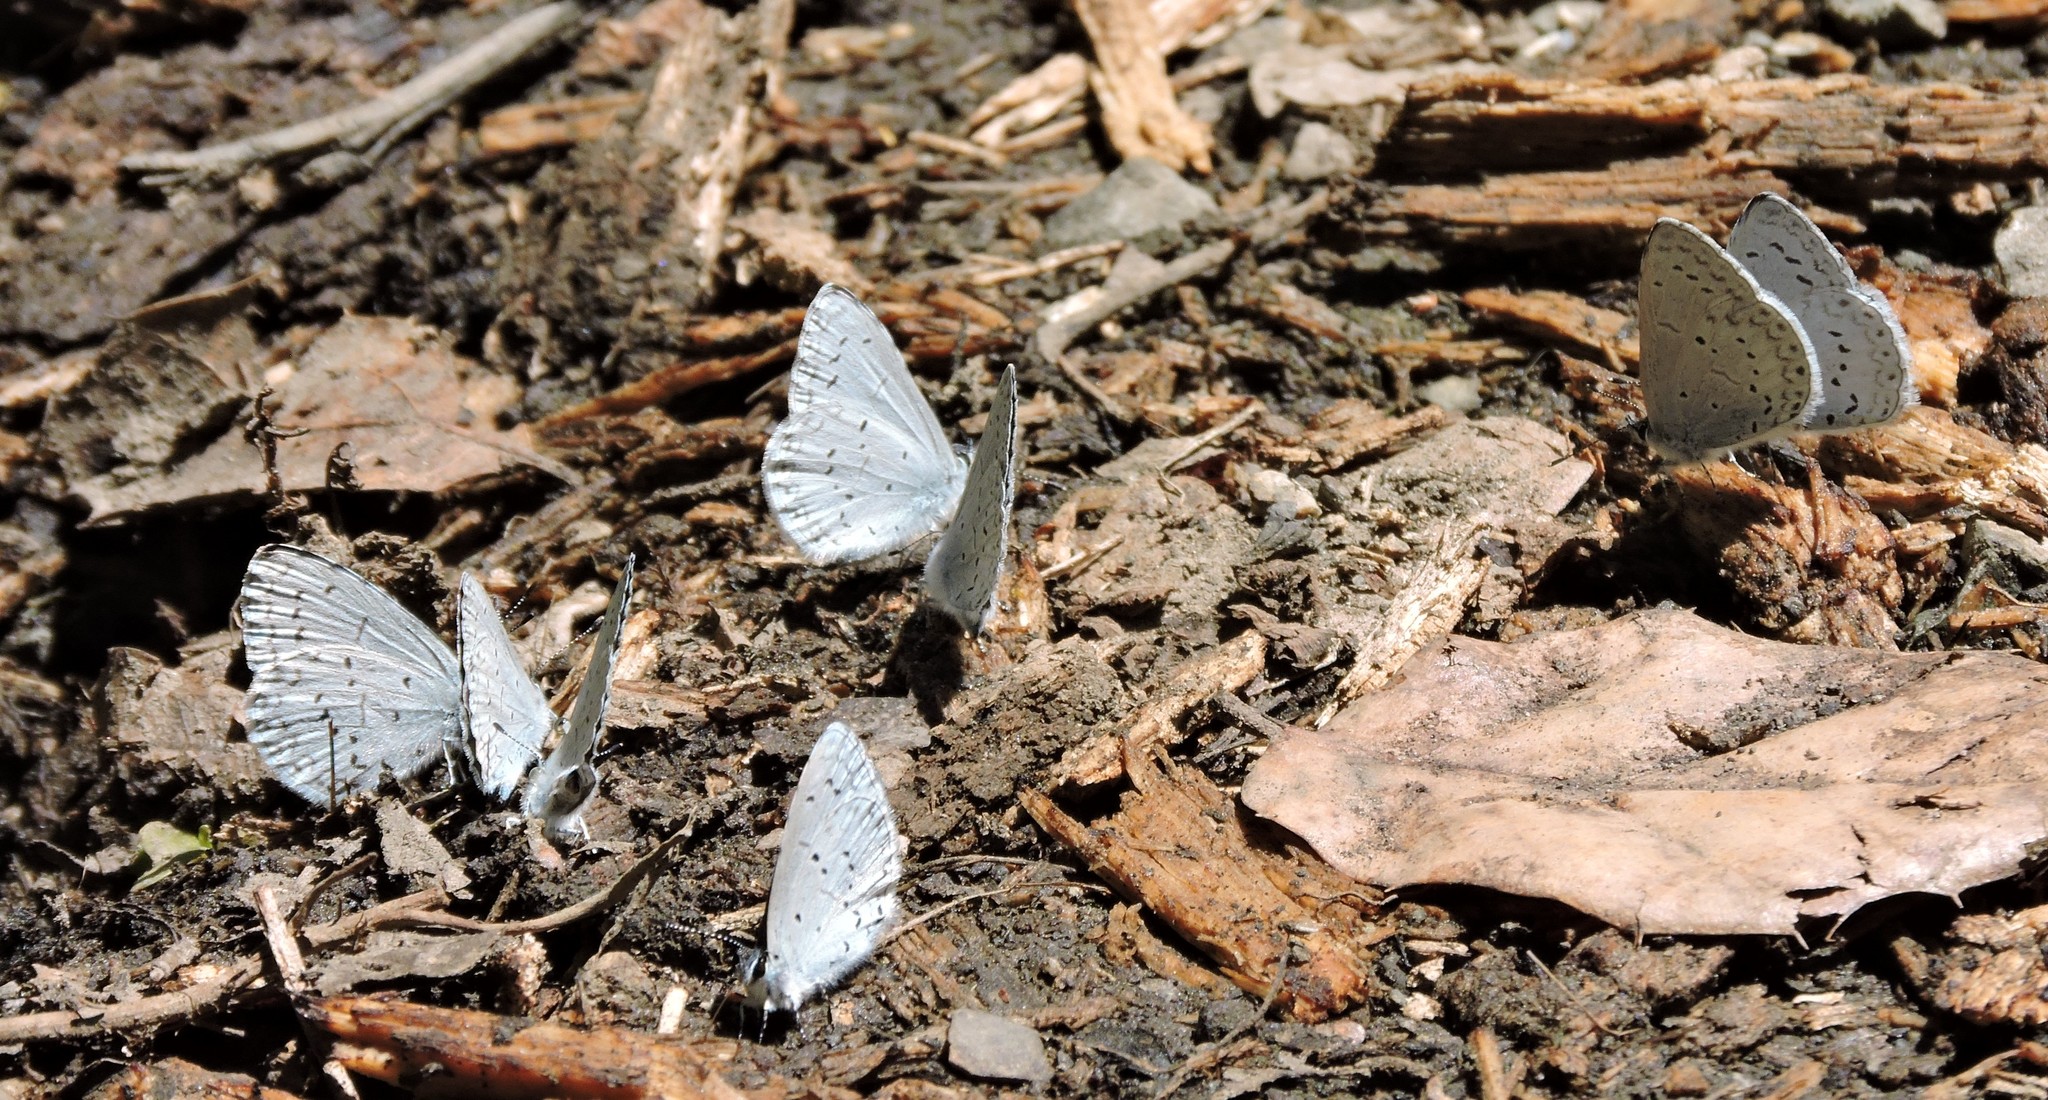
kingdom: Animalia
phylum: Arthropoda
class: Insecta
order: Lepidoptera
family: Lycaenidae
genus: Celastrina
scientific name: Celastrina ladon
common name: Spring azure
